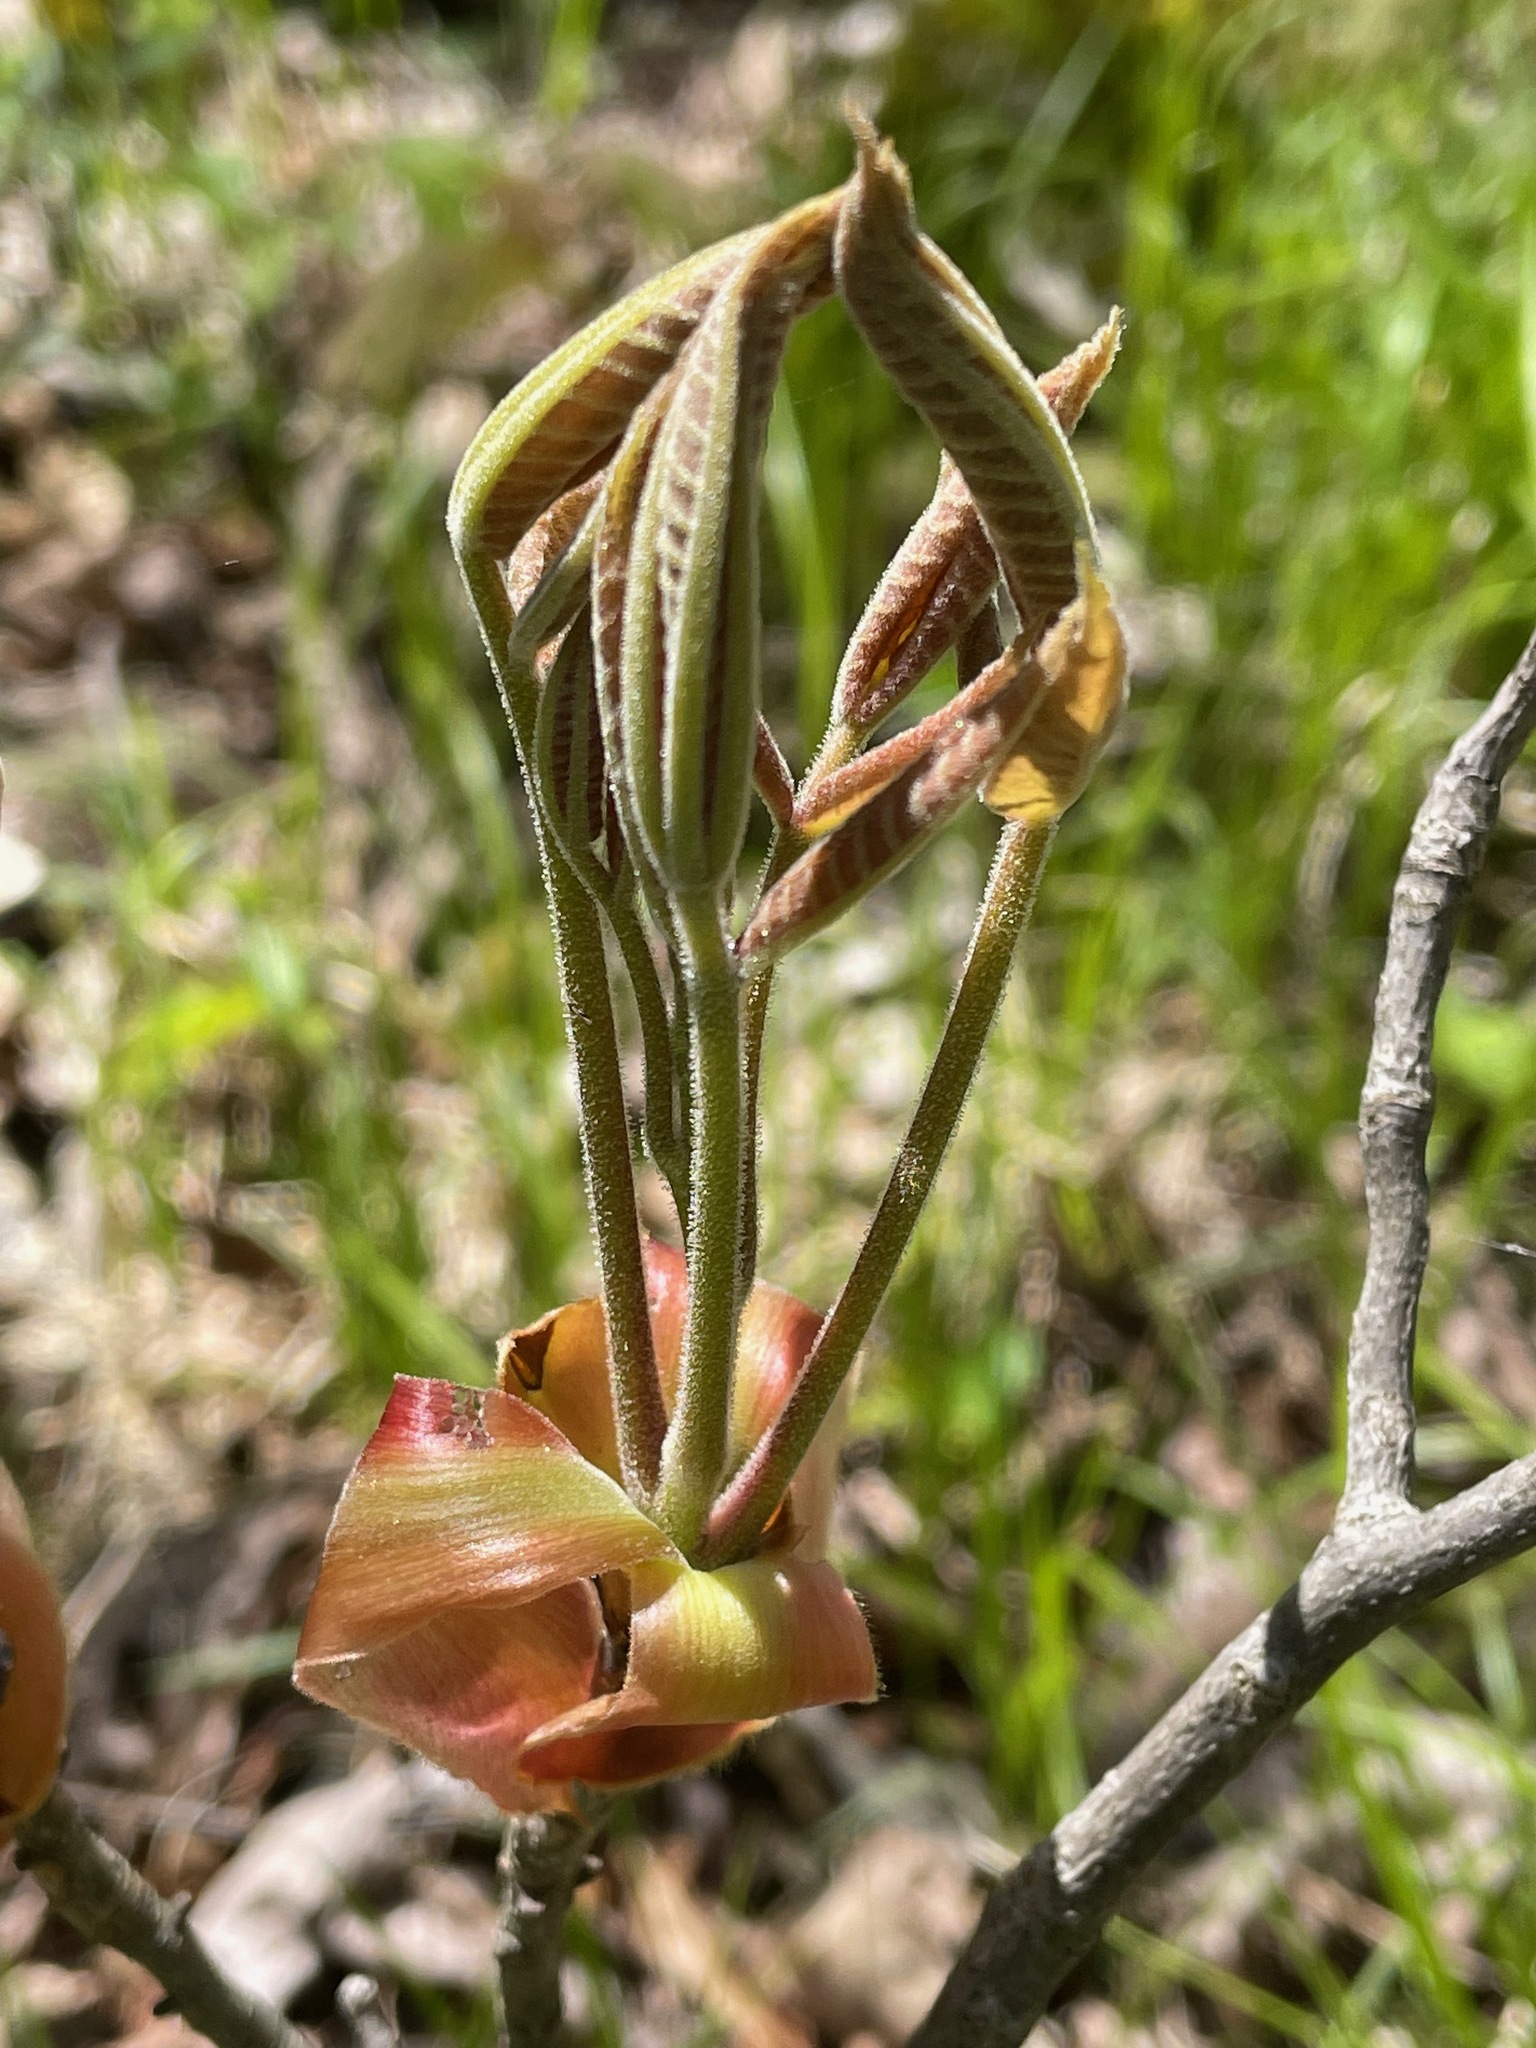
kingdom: Plantae
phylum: Tracheophyta
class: Magnoliopsida
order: Fagales
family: Juglandaceae
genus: Carya
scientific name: Carya ovata
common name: Shagbark hickory
